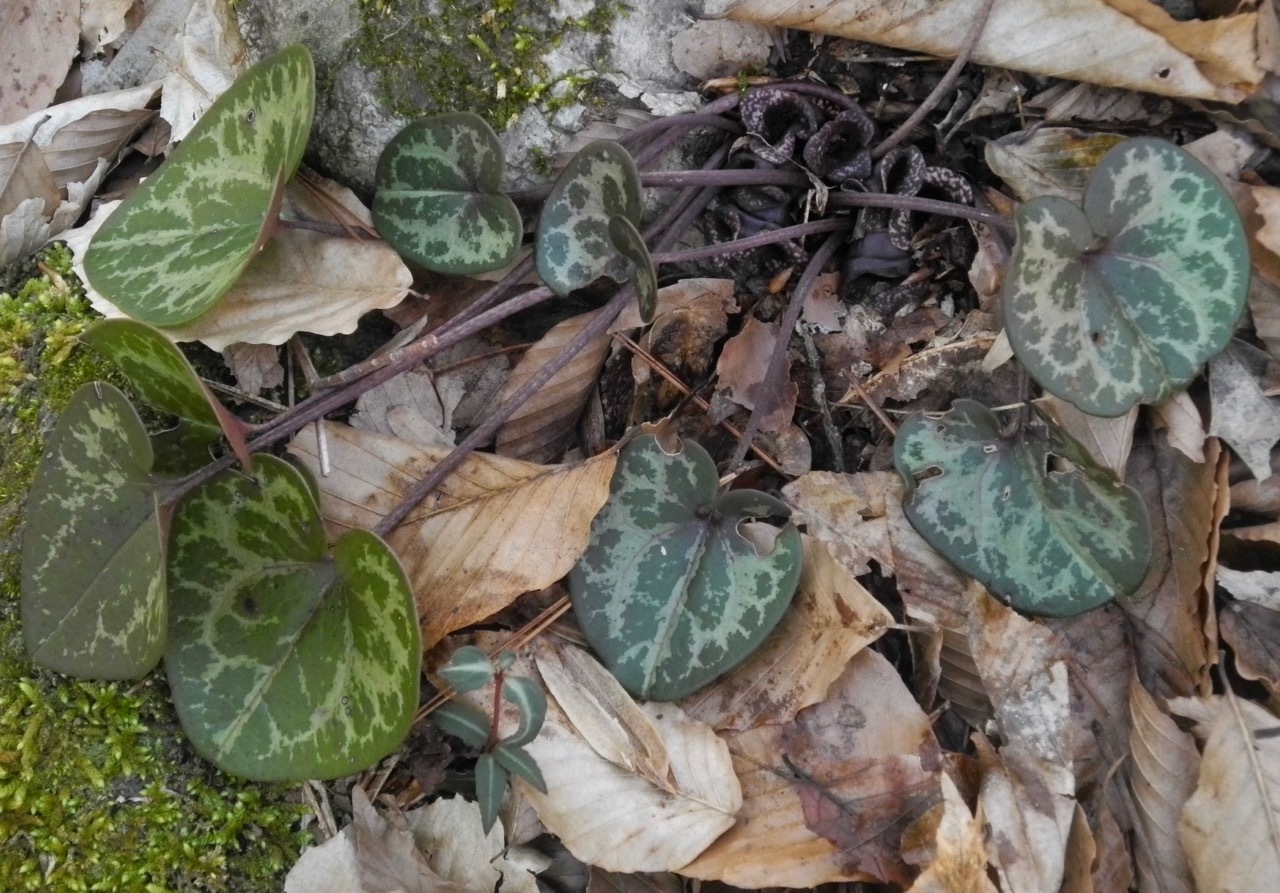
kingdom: Plantae
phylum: Tracheophyta
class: Magnoliopsida
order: Piperales
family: Aristolochiaceae
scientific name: Aristolochiaceae
